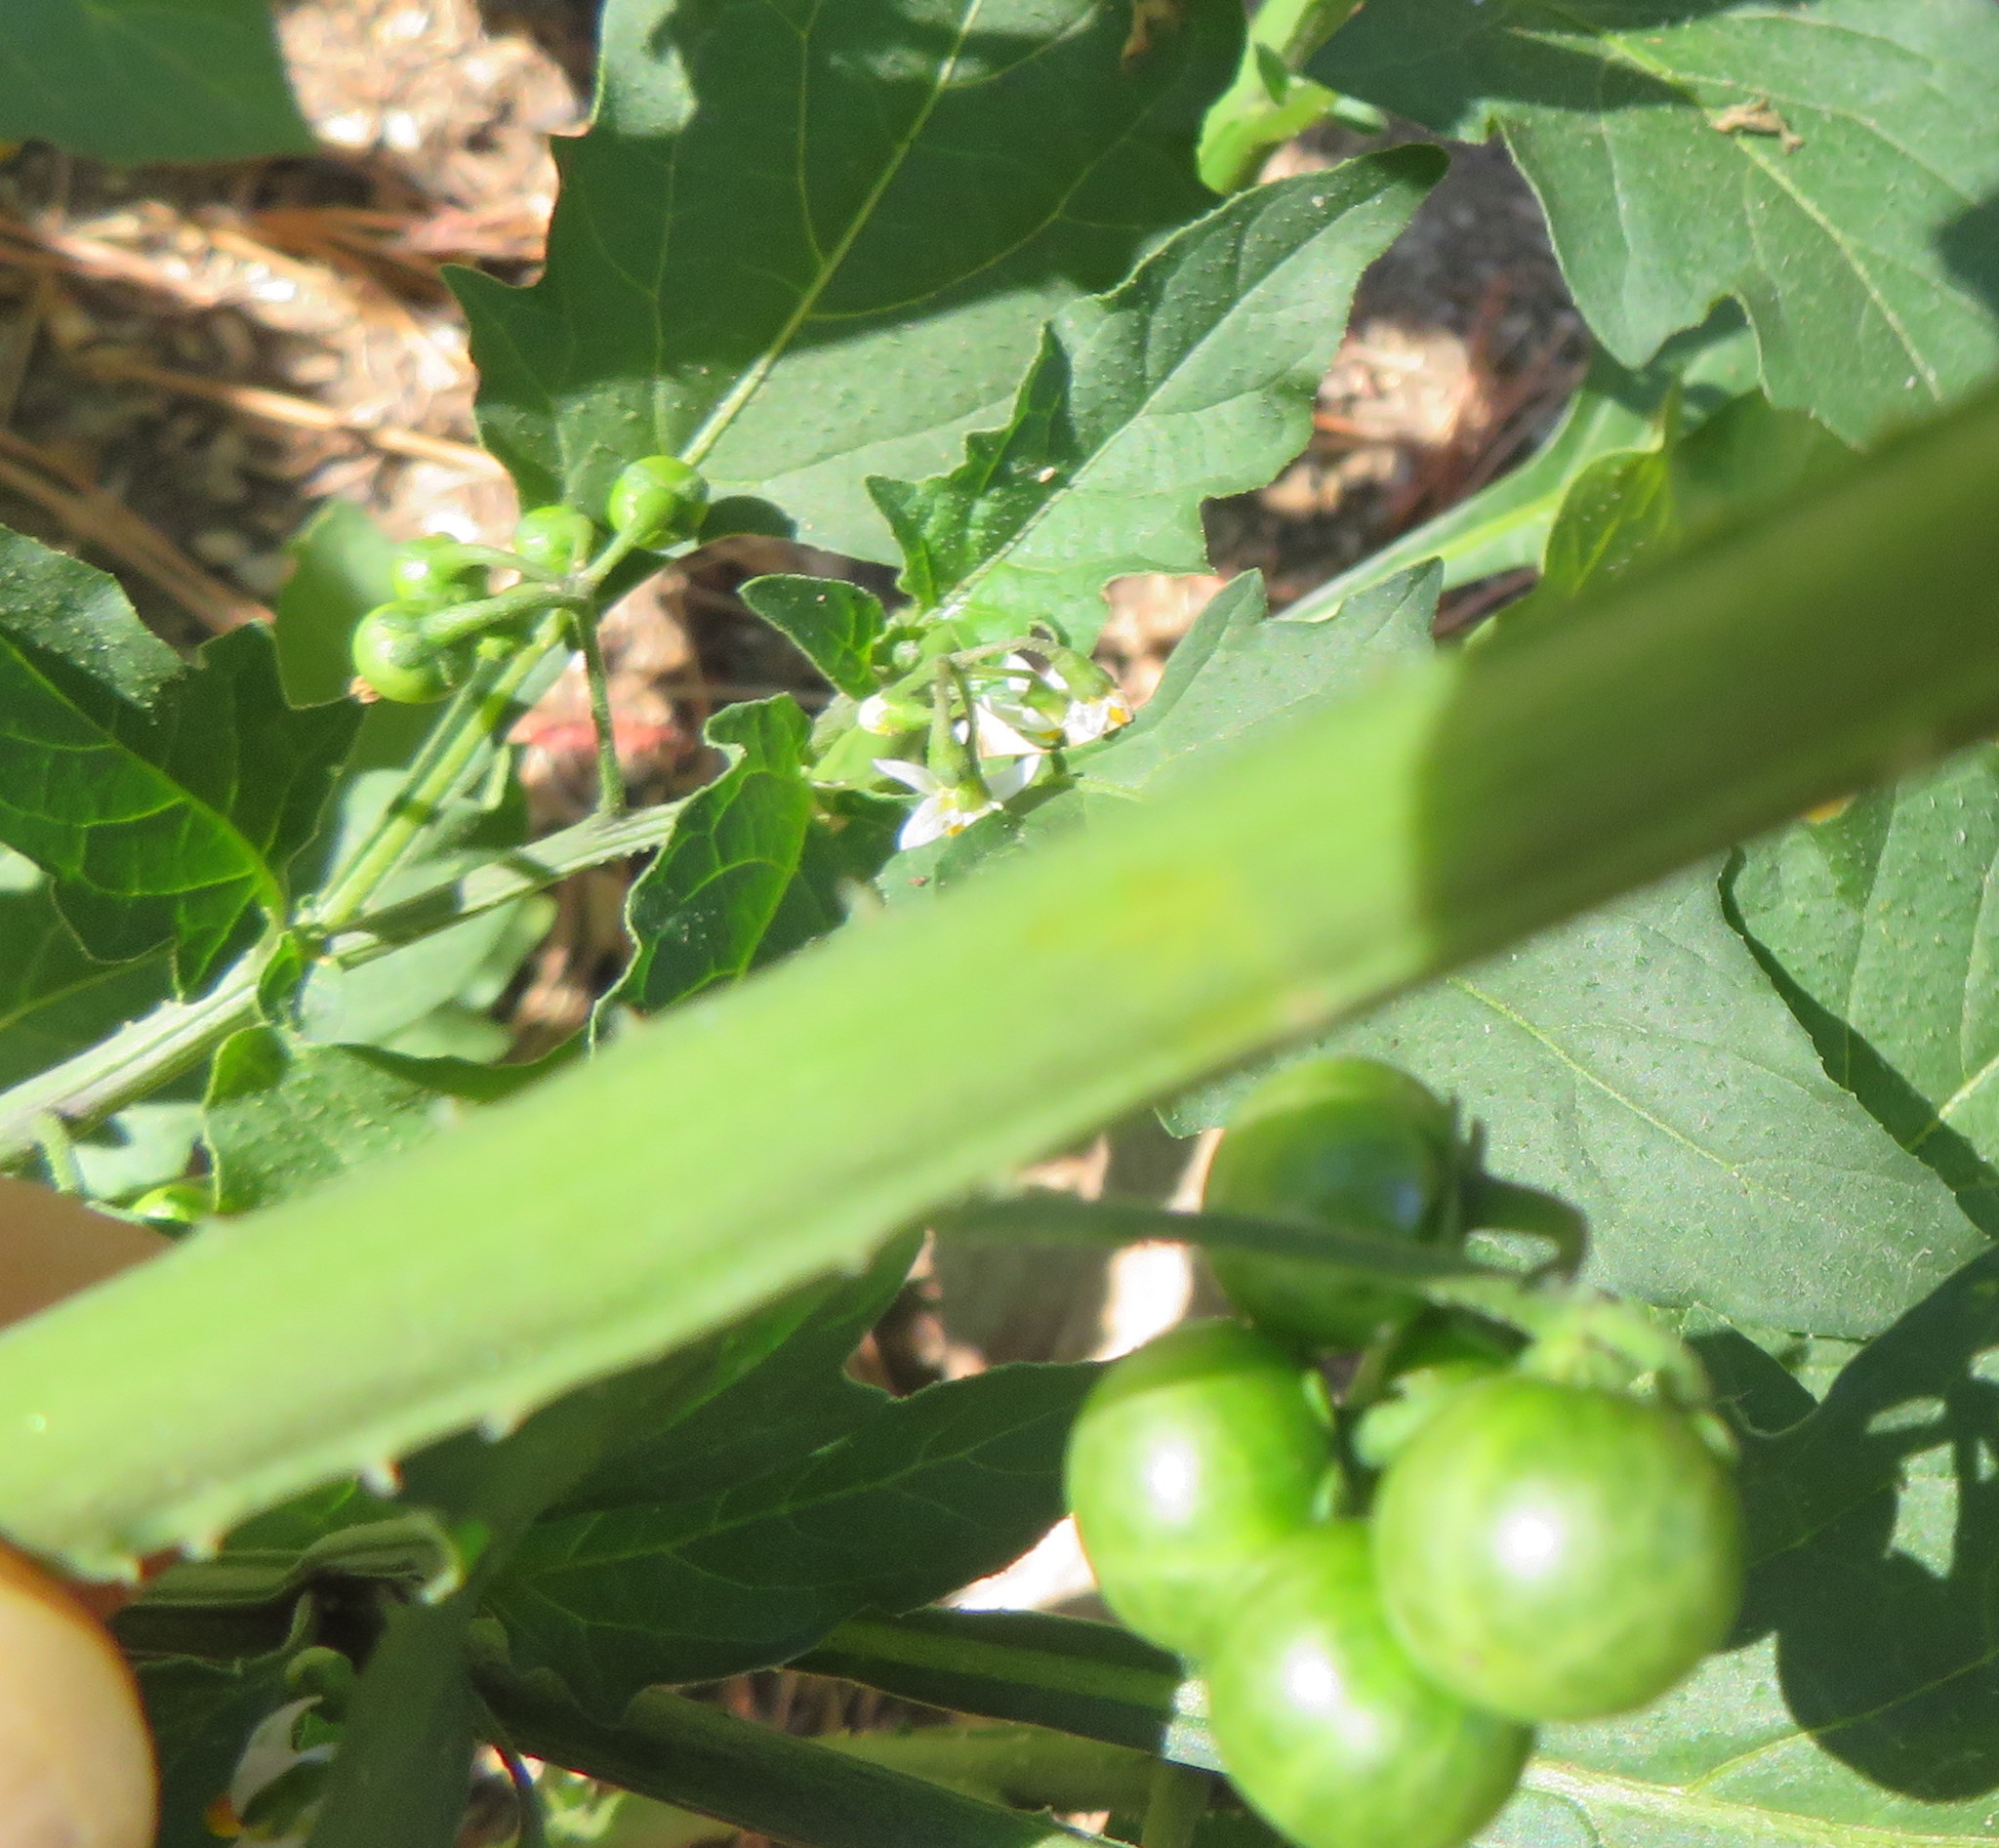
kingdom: Plantae
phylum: Tracheophyta
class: Magnoliopsida
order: Solanales
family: Solanaceae
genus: Solanum
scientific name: Solanum nigrum
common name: Black nightshade
